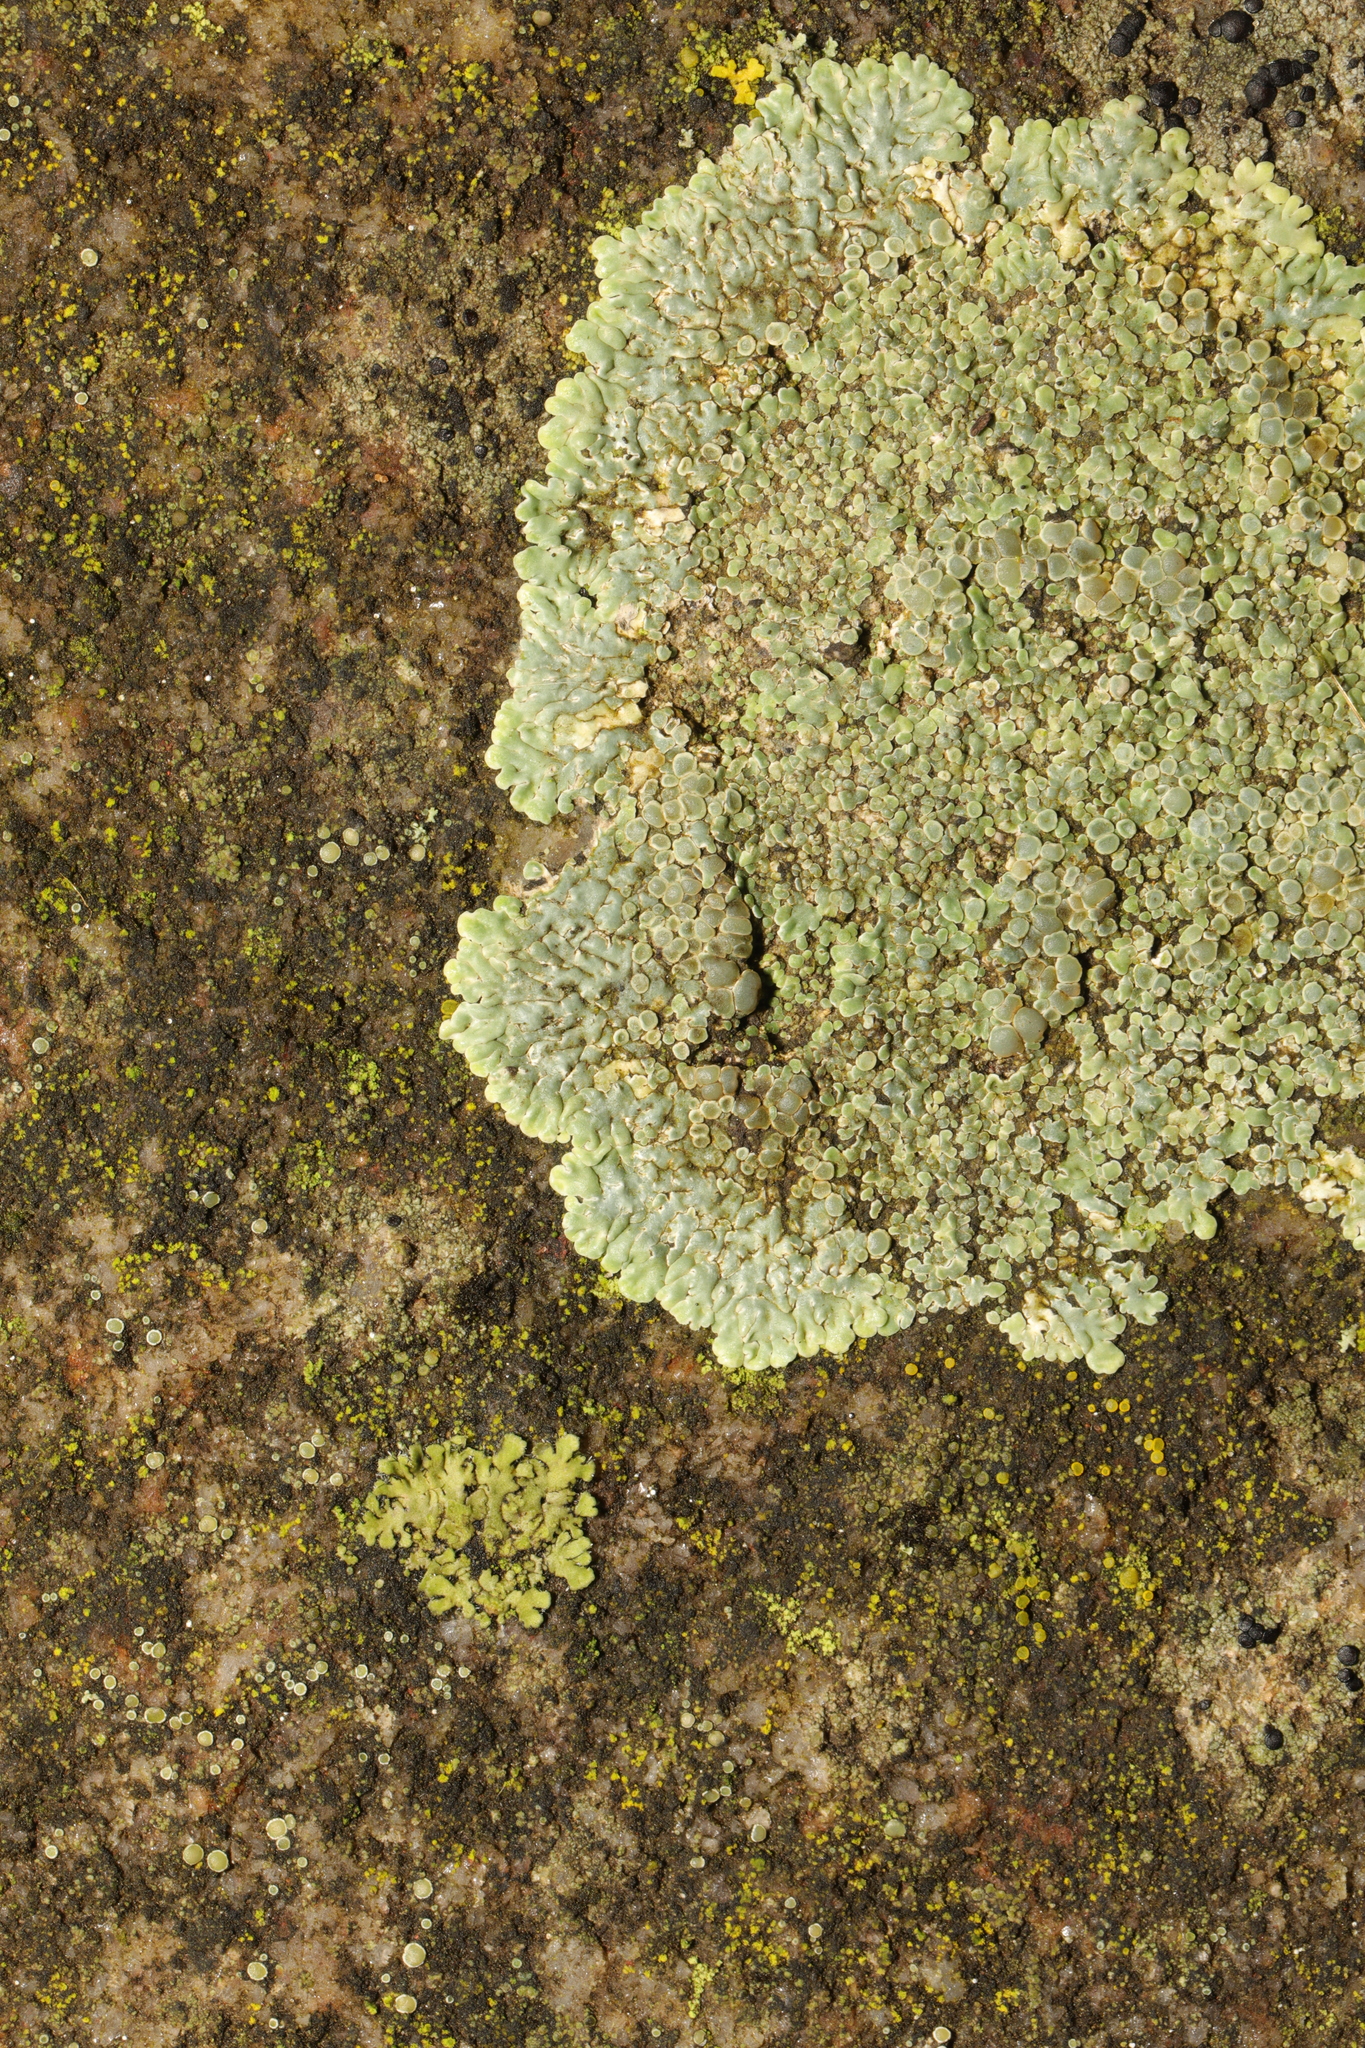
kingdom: Fungi
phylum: Ascomycota
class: Lecanoromycetes
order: Lecanorales
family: Lecanoraceae
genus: Protoparmeliopsis
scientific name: Protoparmeliopsis muralis
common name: Stonewall rim lichen
